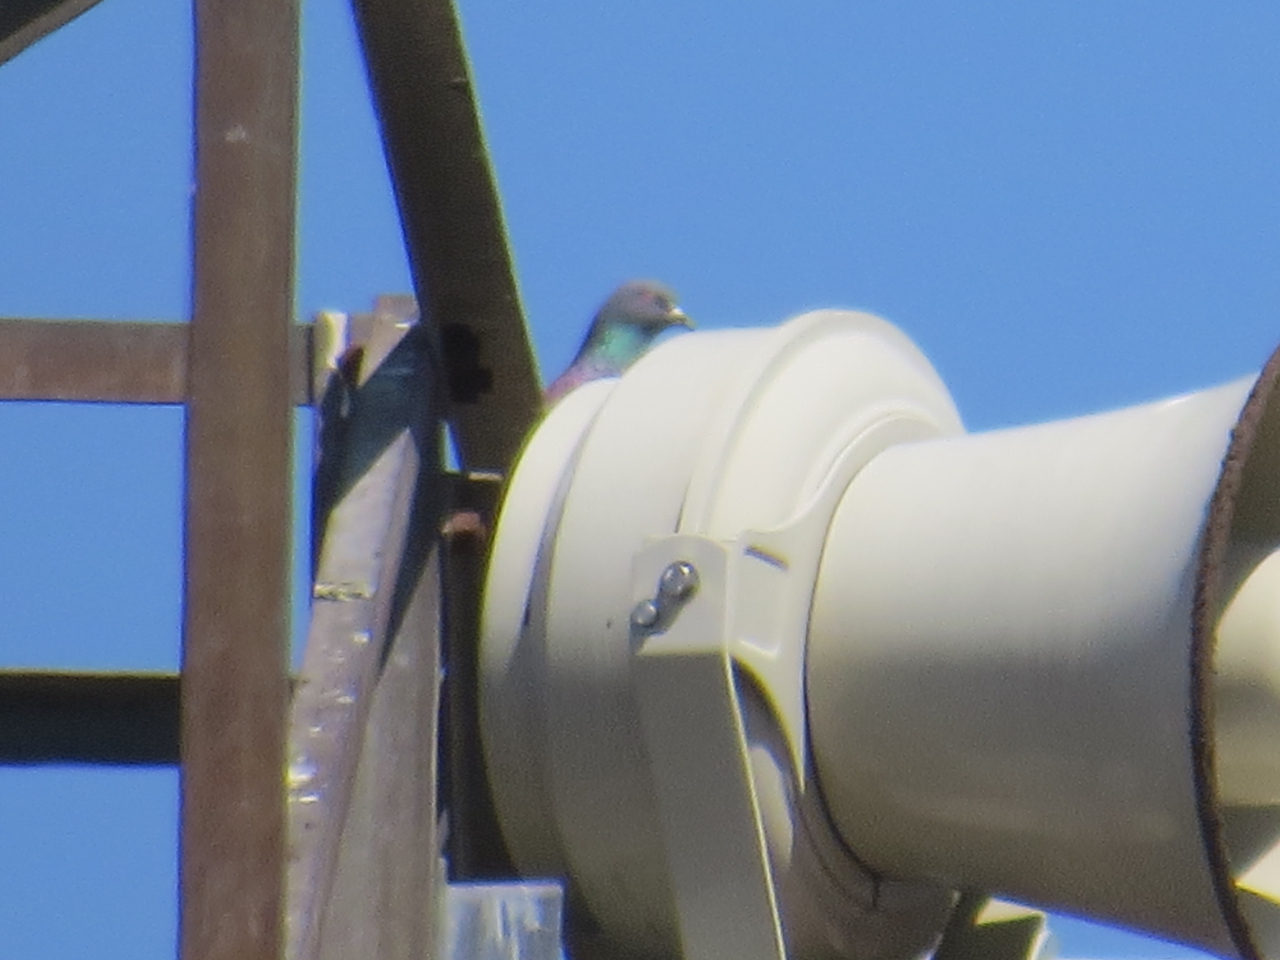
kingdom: Animalia
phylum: Chordata
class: Aves
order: Columbiformes
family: Columbidae
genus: Columba
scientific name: Columba livia
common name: Rock pigeon
